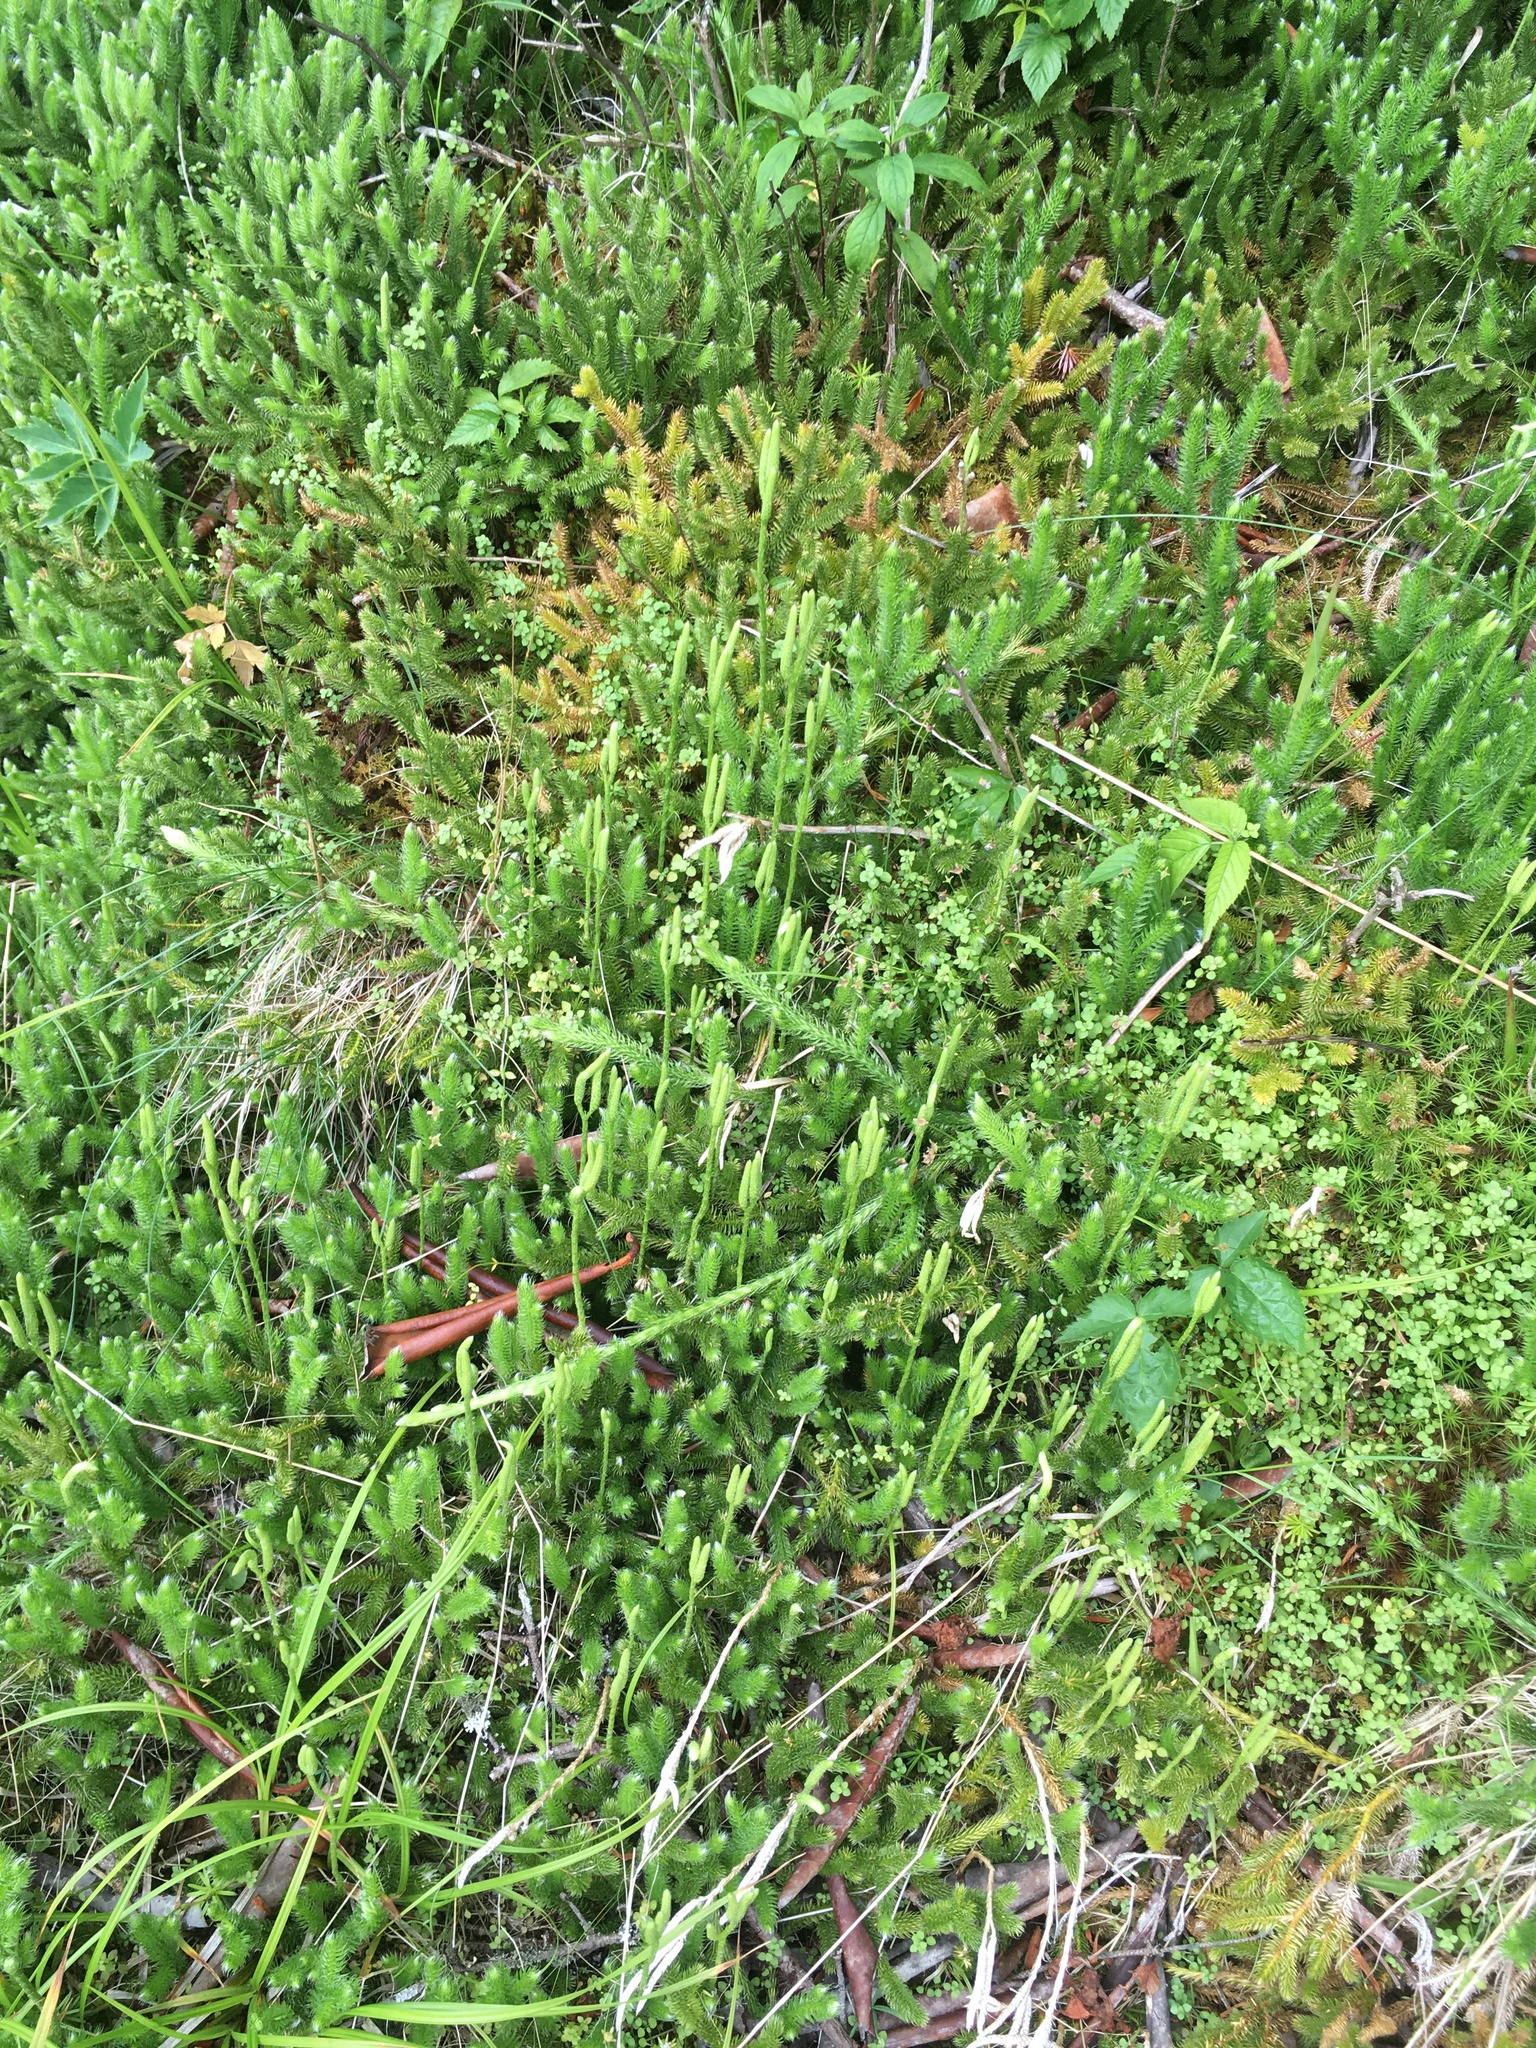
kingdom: Plantae
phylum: Tracheophyta
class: Lycopodiopsida
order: Lycopodiales
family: Lycopodiaceae
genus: Lycopodium
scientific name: Lycopodium clavatum
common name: Stag's-horn clubmoss
